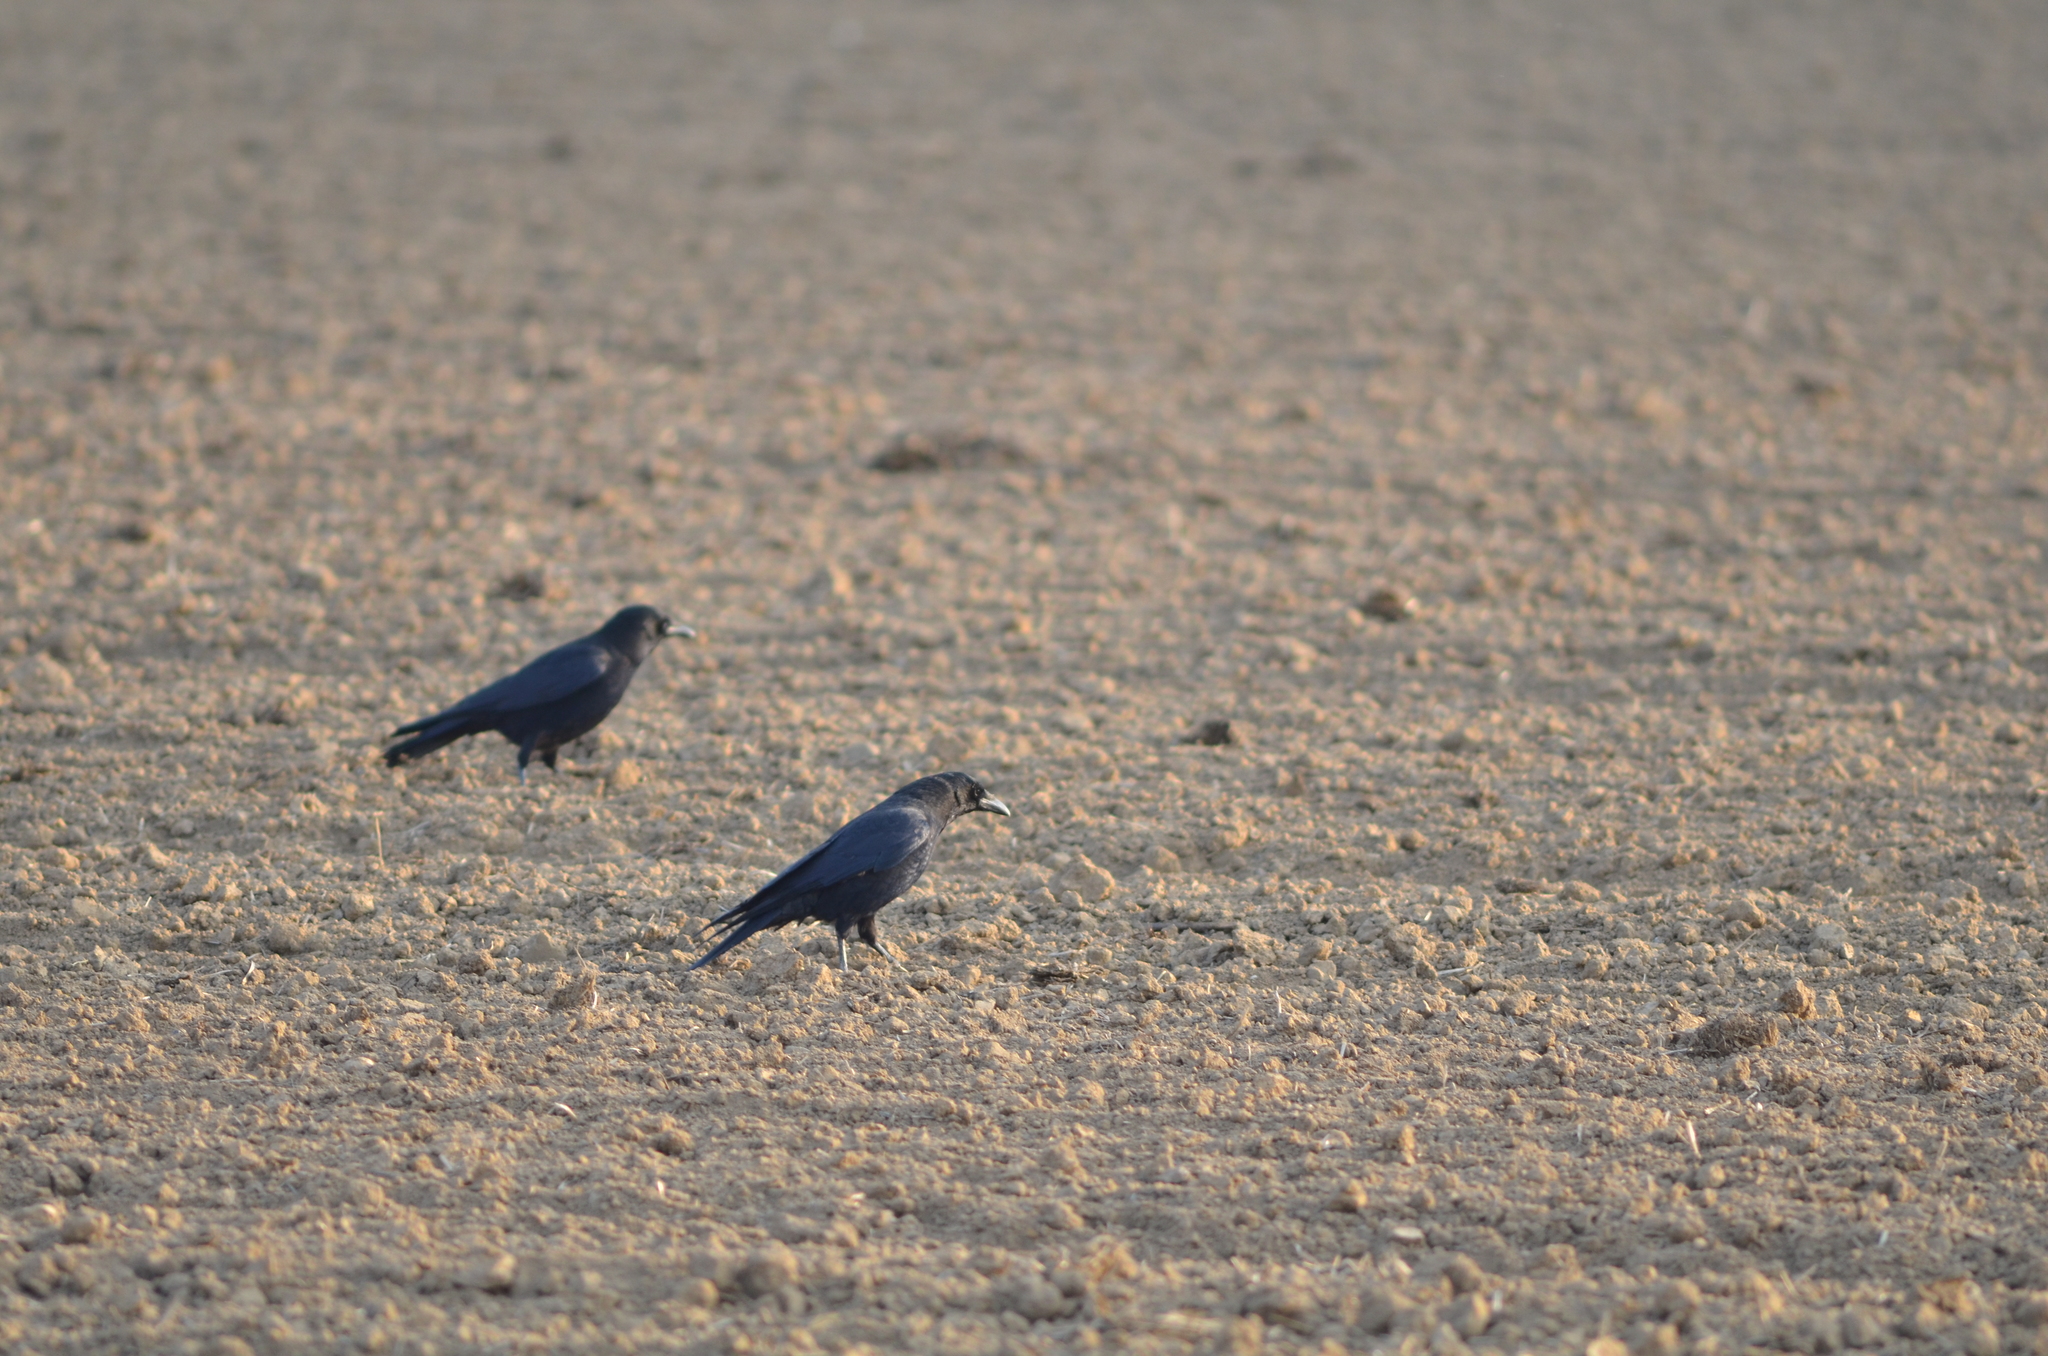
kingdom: Animalia
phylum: Chordata
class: Aves
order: Passeriformes
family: Corvidae
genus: Corvus
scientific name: Corvus corone
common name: Carrion crow
